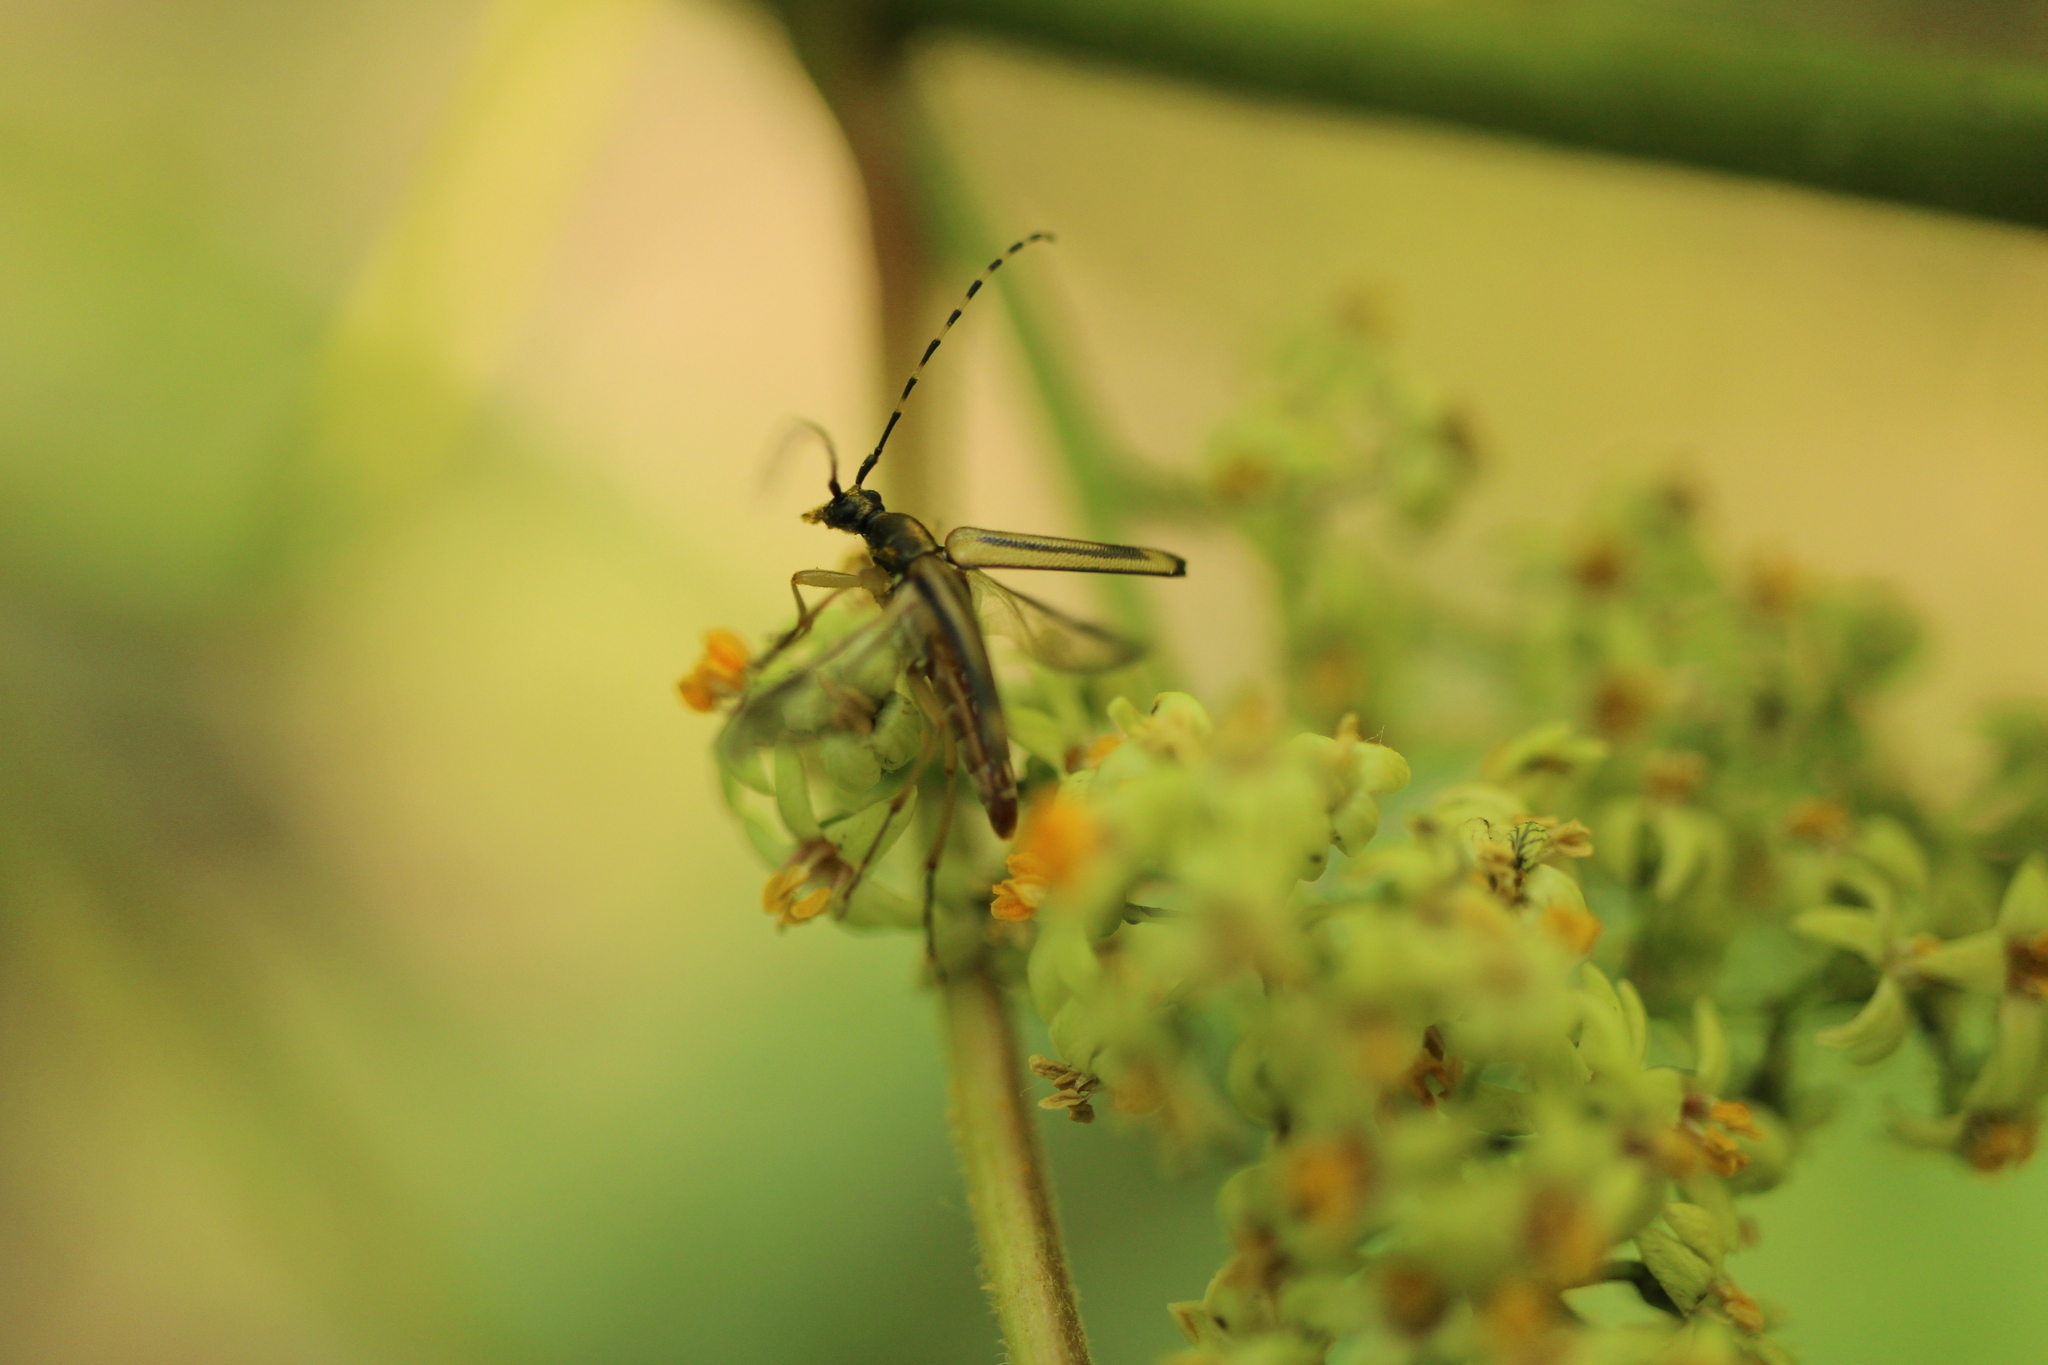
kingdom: Animalia
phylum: Arthropoda
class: Insecta
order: Coleoptera
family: Cerambycidae
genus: Analeptura
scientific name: Analeptura lineola
